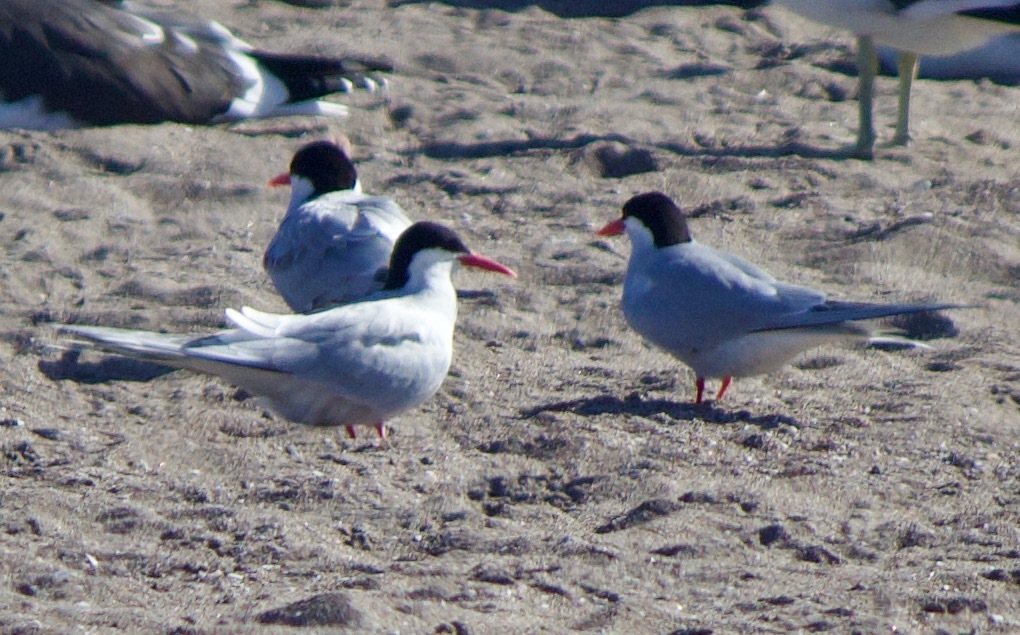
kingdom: Animalia
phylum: Chordata
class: Aves
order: Charadriiformes
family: Laridae
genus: Sterna
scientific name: Sterna hirundinacea
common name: South american tern
